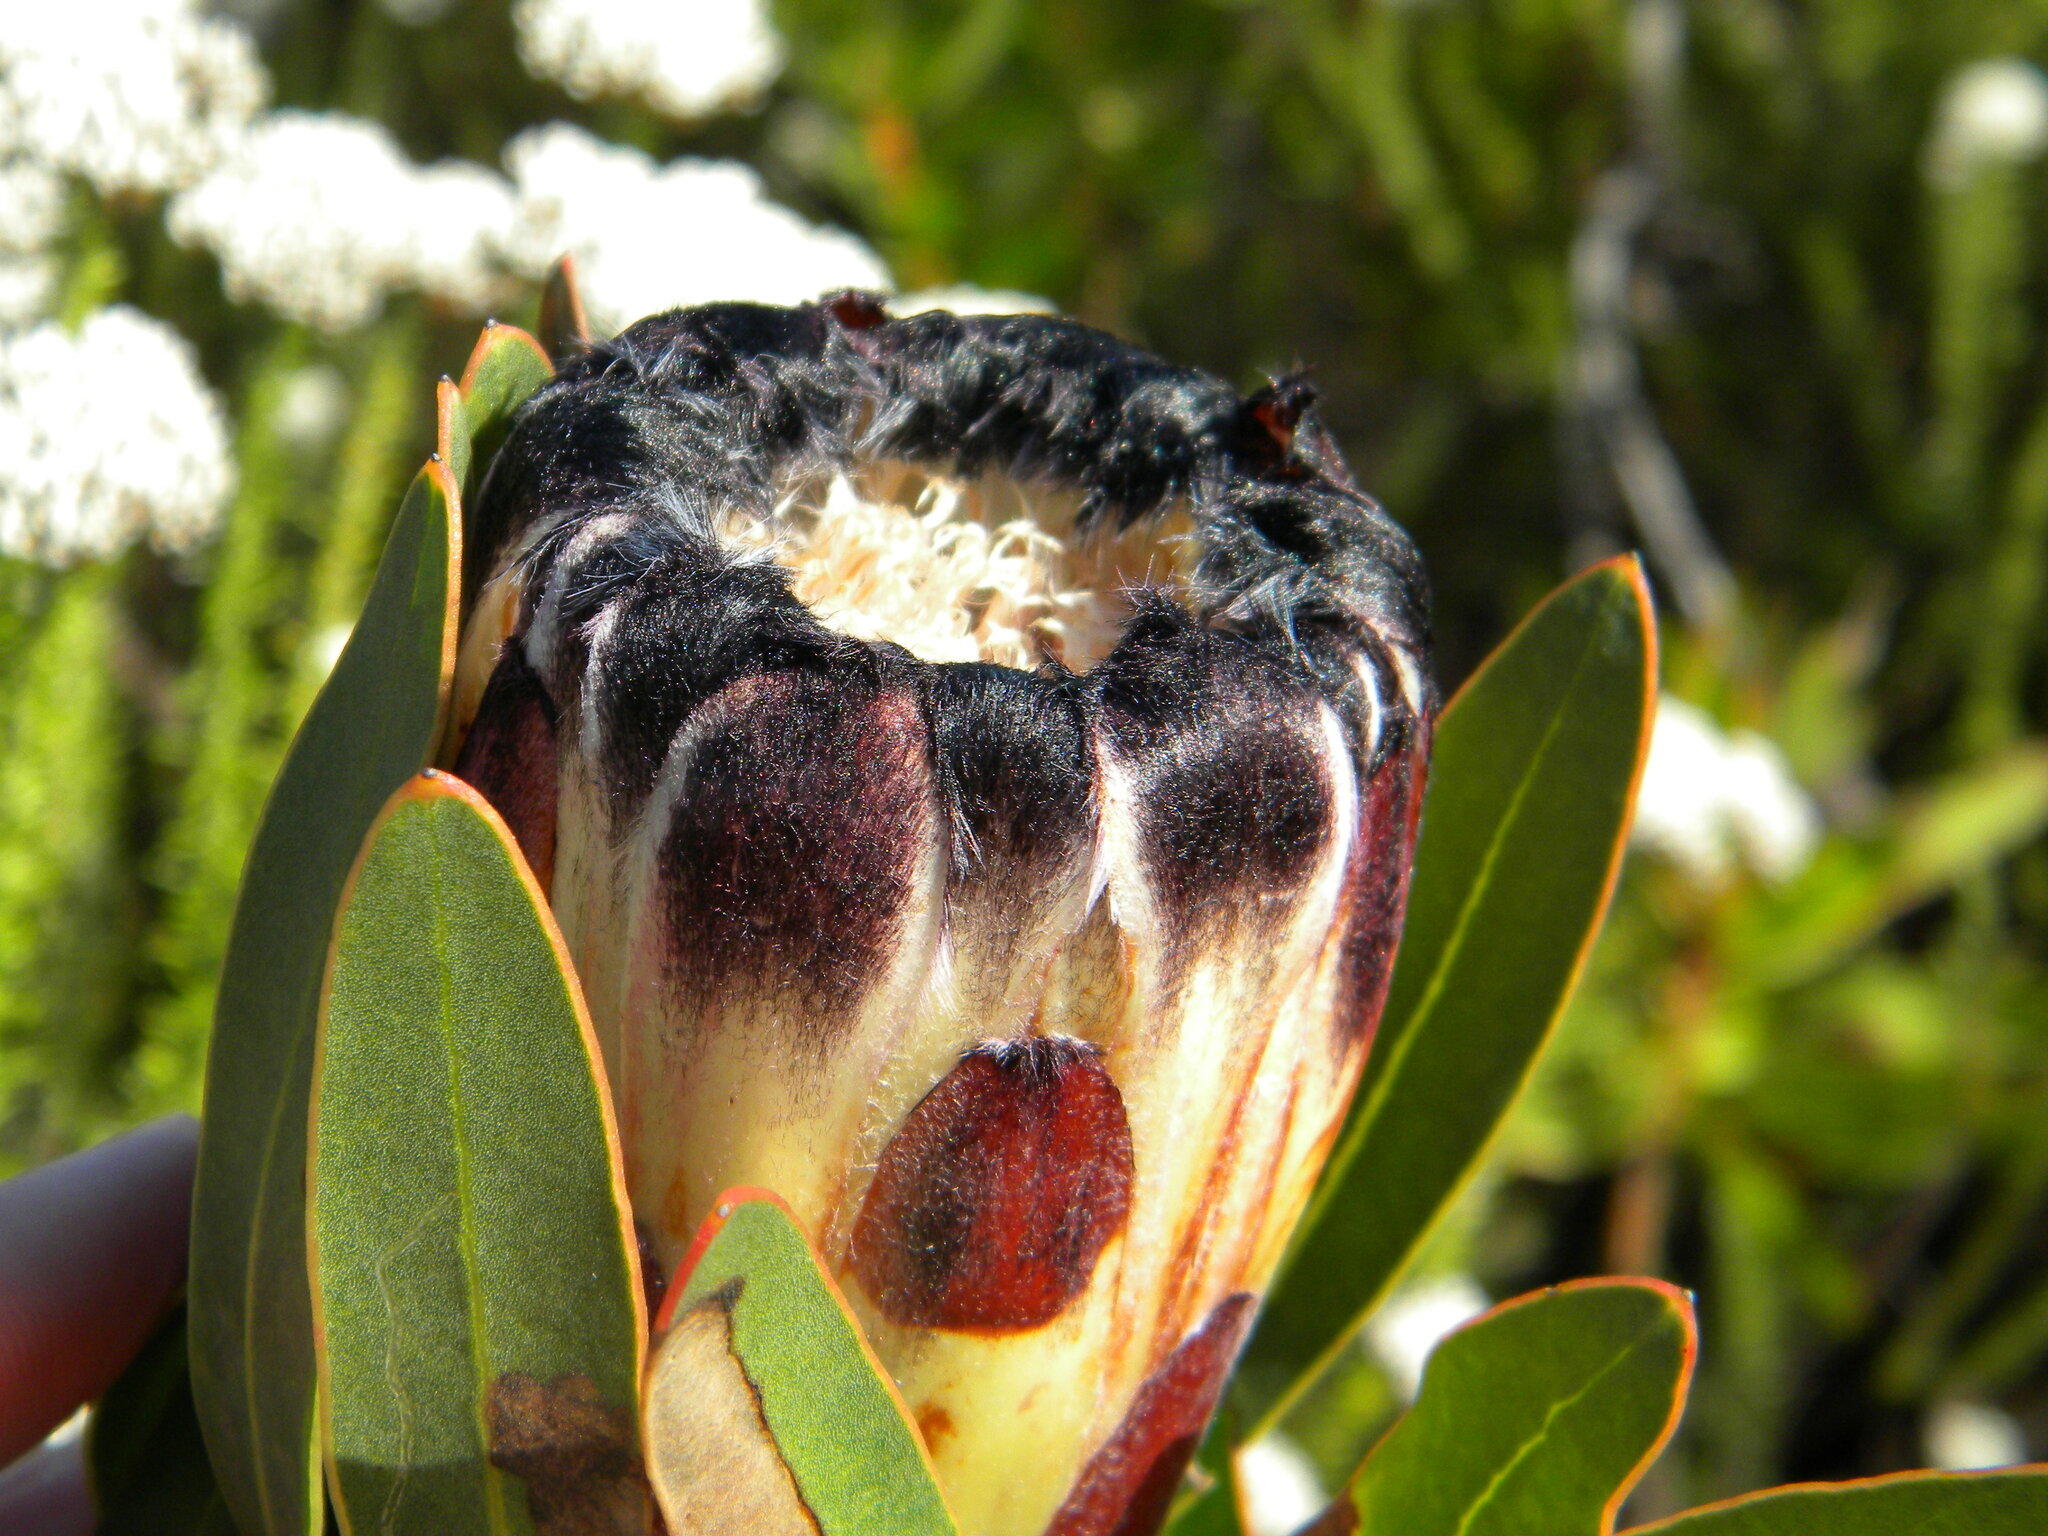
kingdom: Plantae
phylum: Tracheophyta
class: Magnoliopsida
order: Proteales
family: Proteaceae
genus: Protea
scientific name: Protea lepidocarpodendron
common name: Black-bearded protea
